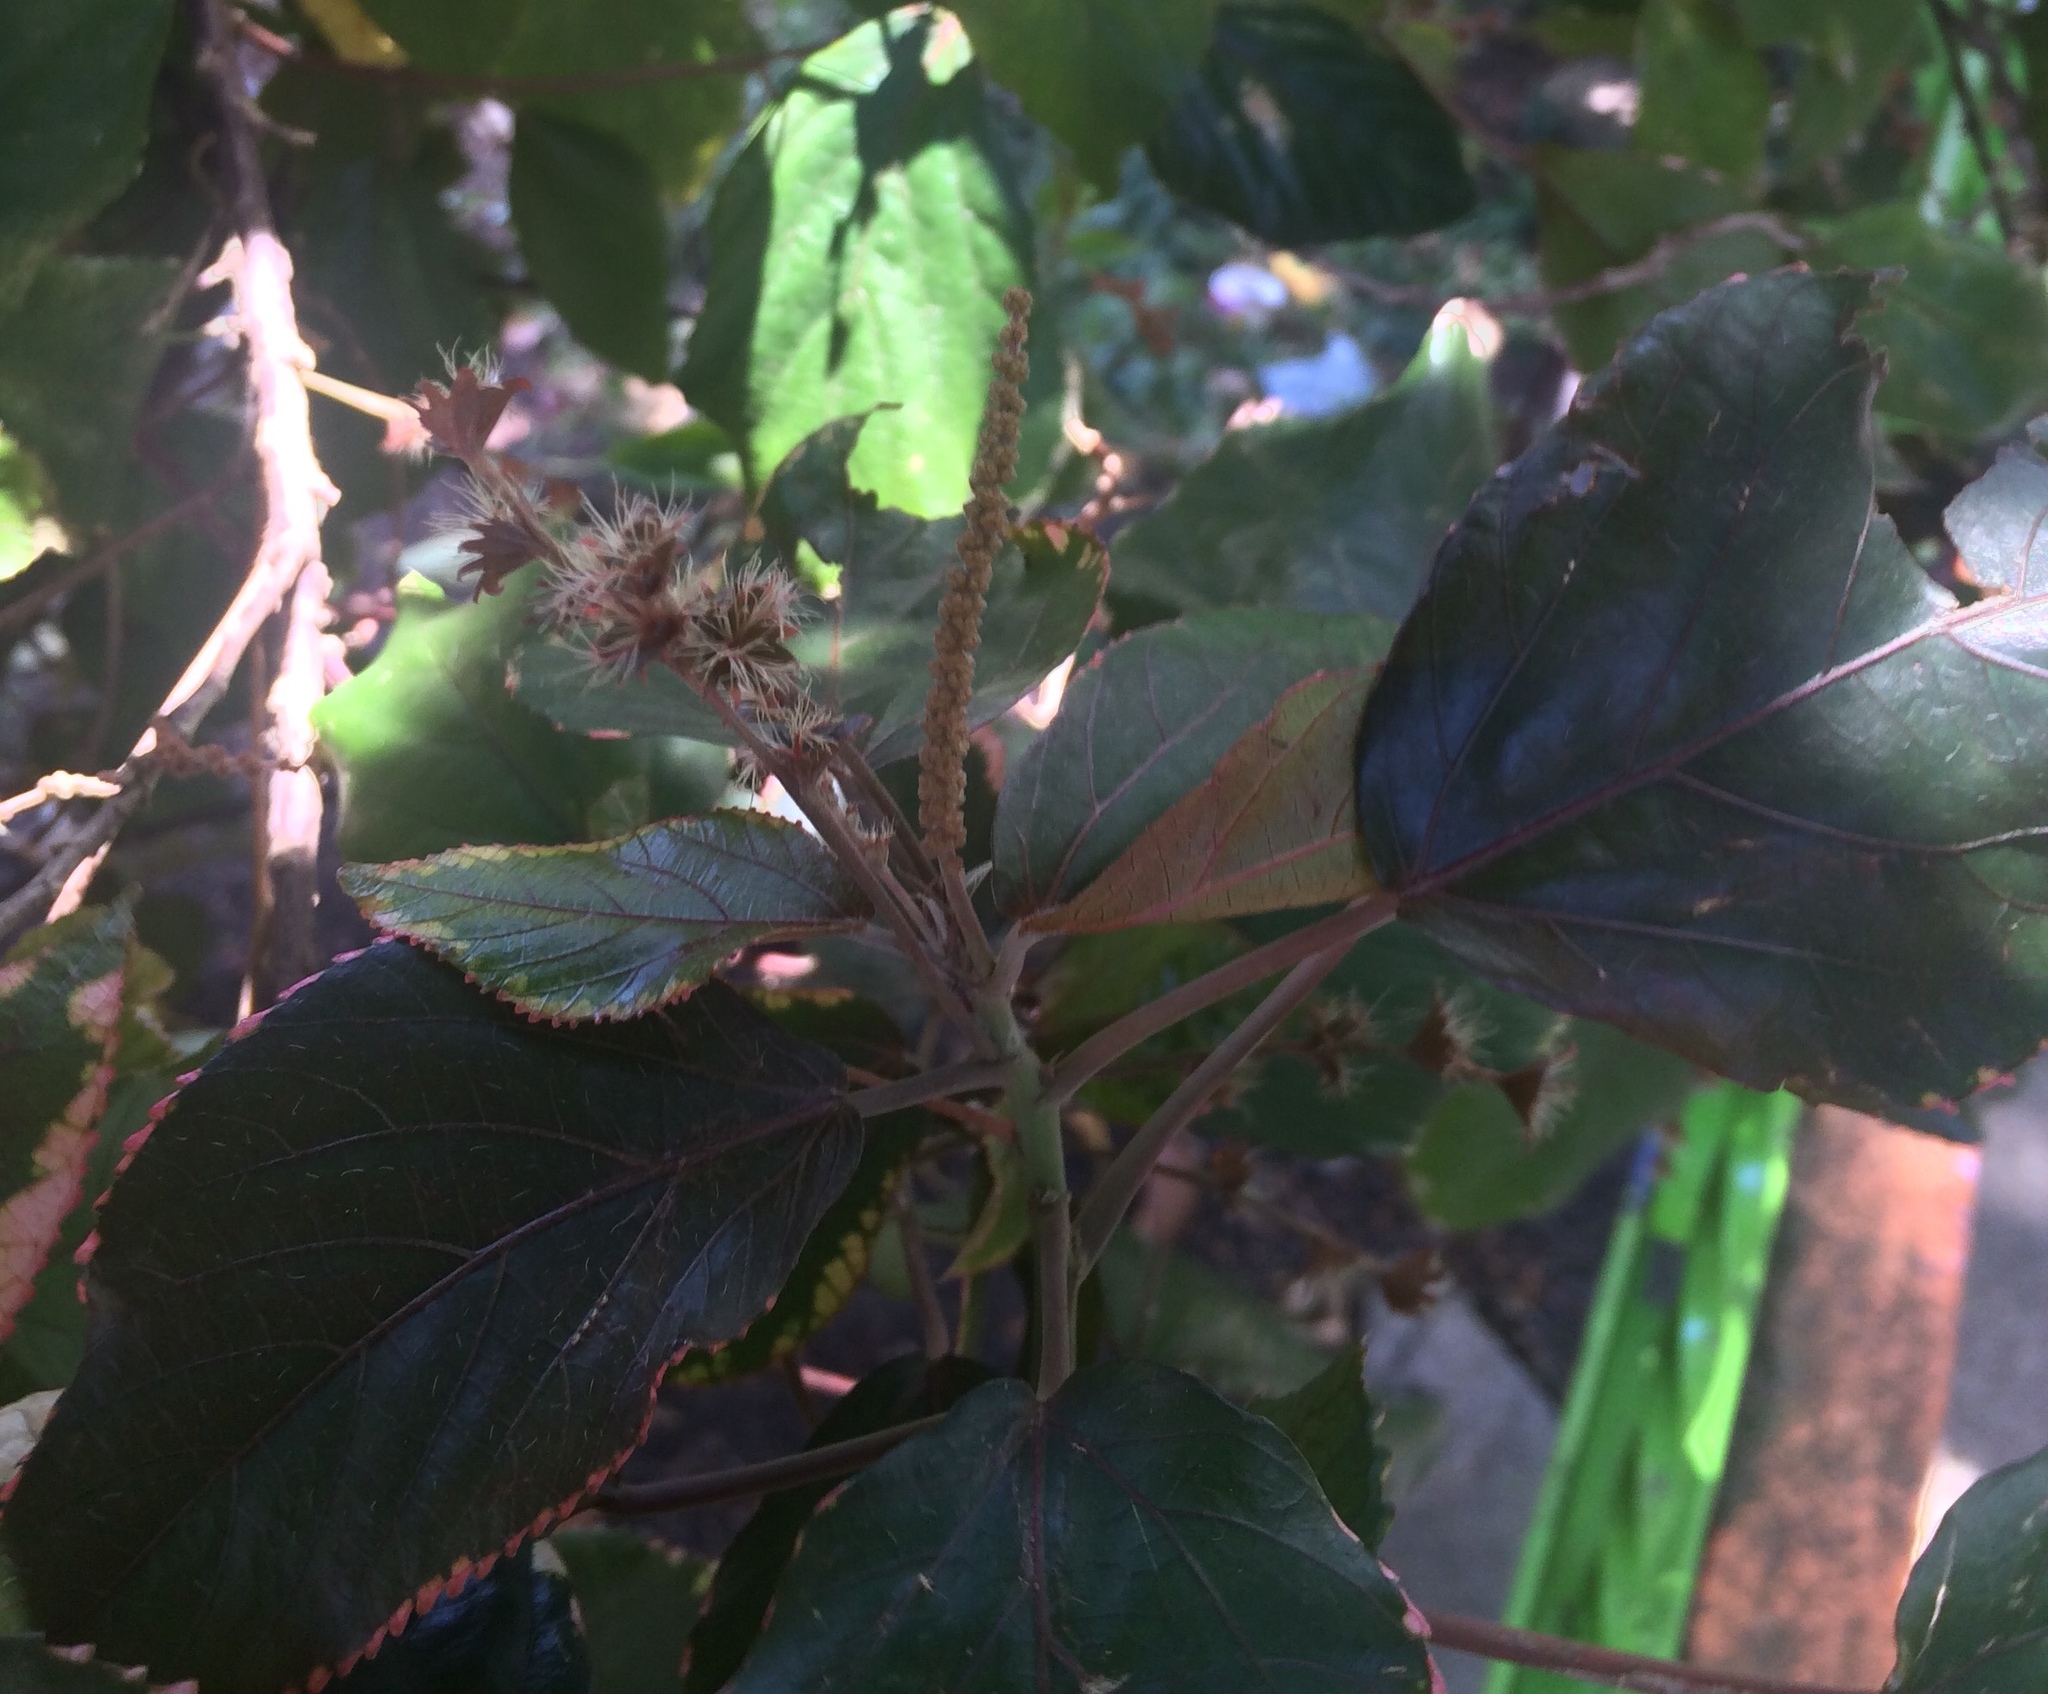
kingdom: Plantae
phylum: Tracheophyta
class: Magnoliopsida
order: Malpighiales
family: Euphorbiaceae
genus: Acalypha
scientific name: Acalypha wilkesiana
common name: Jacob's coat
